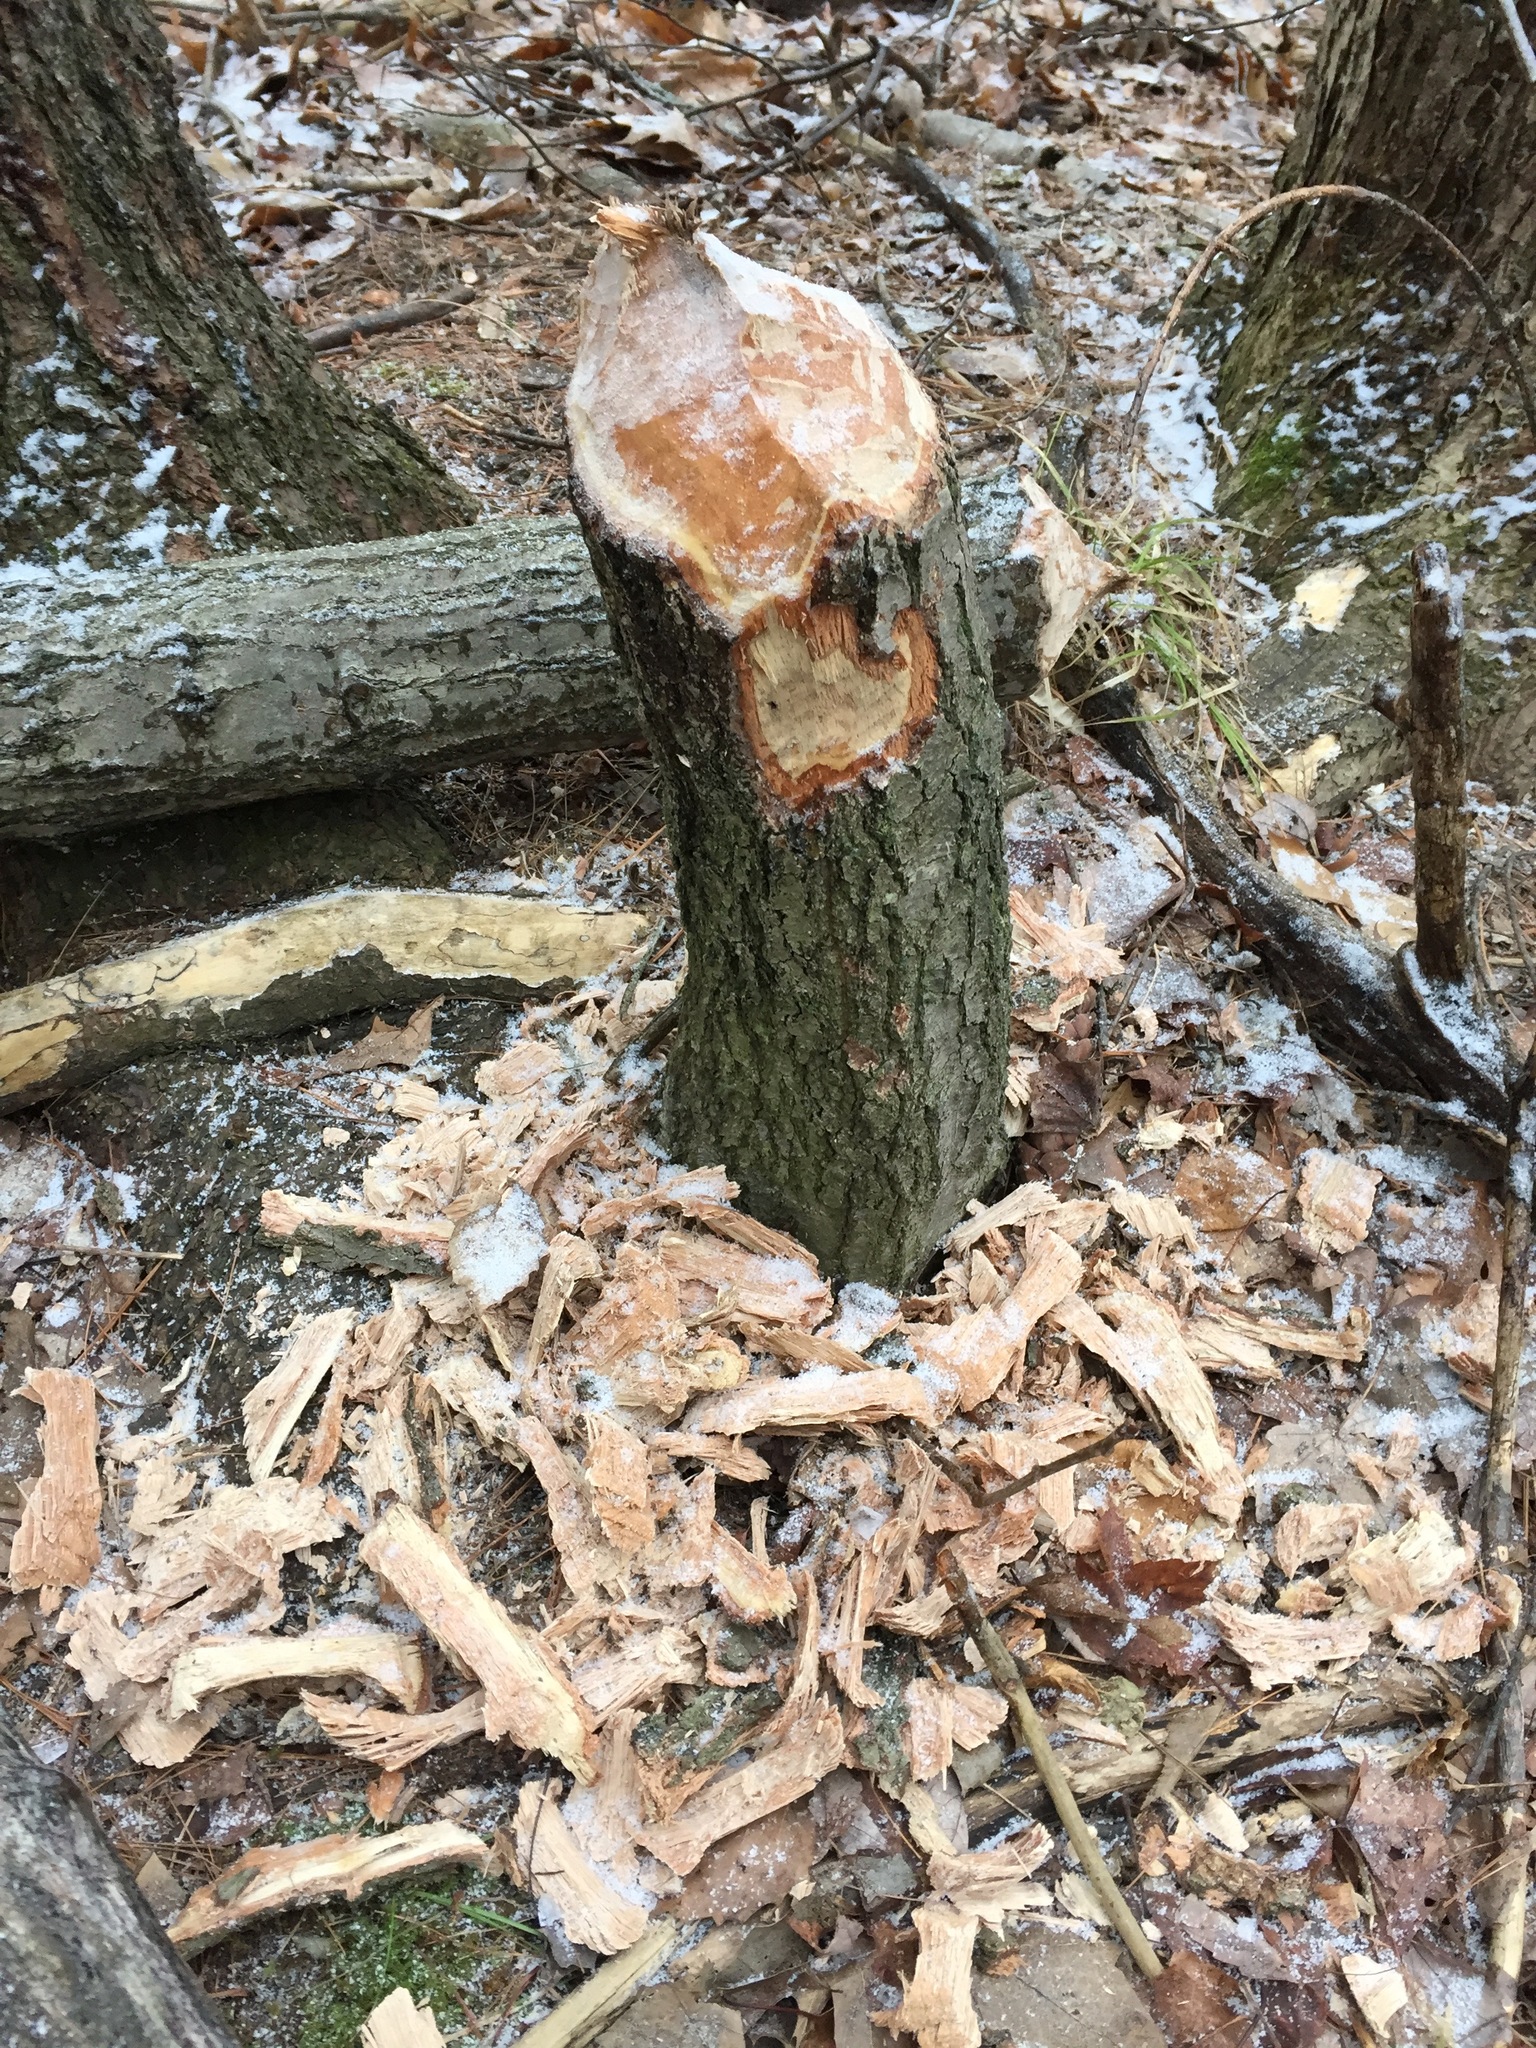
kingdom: Animalia
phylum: Chordata
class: Mammalia
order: Rodentia
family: Castoridae
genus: Castor
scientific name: Castor canadensis
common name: American beaver
